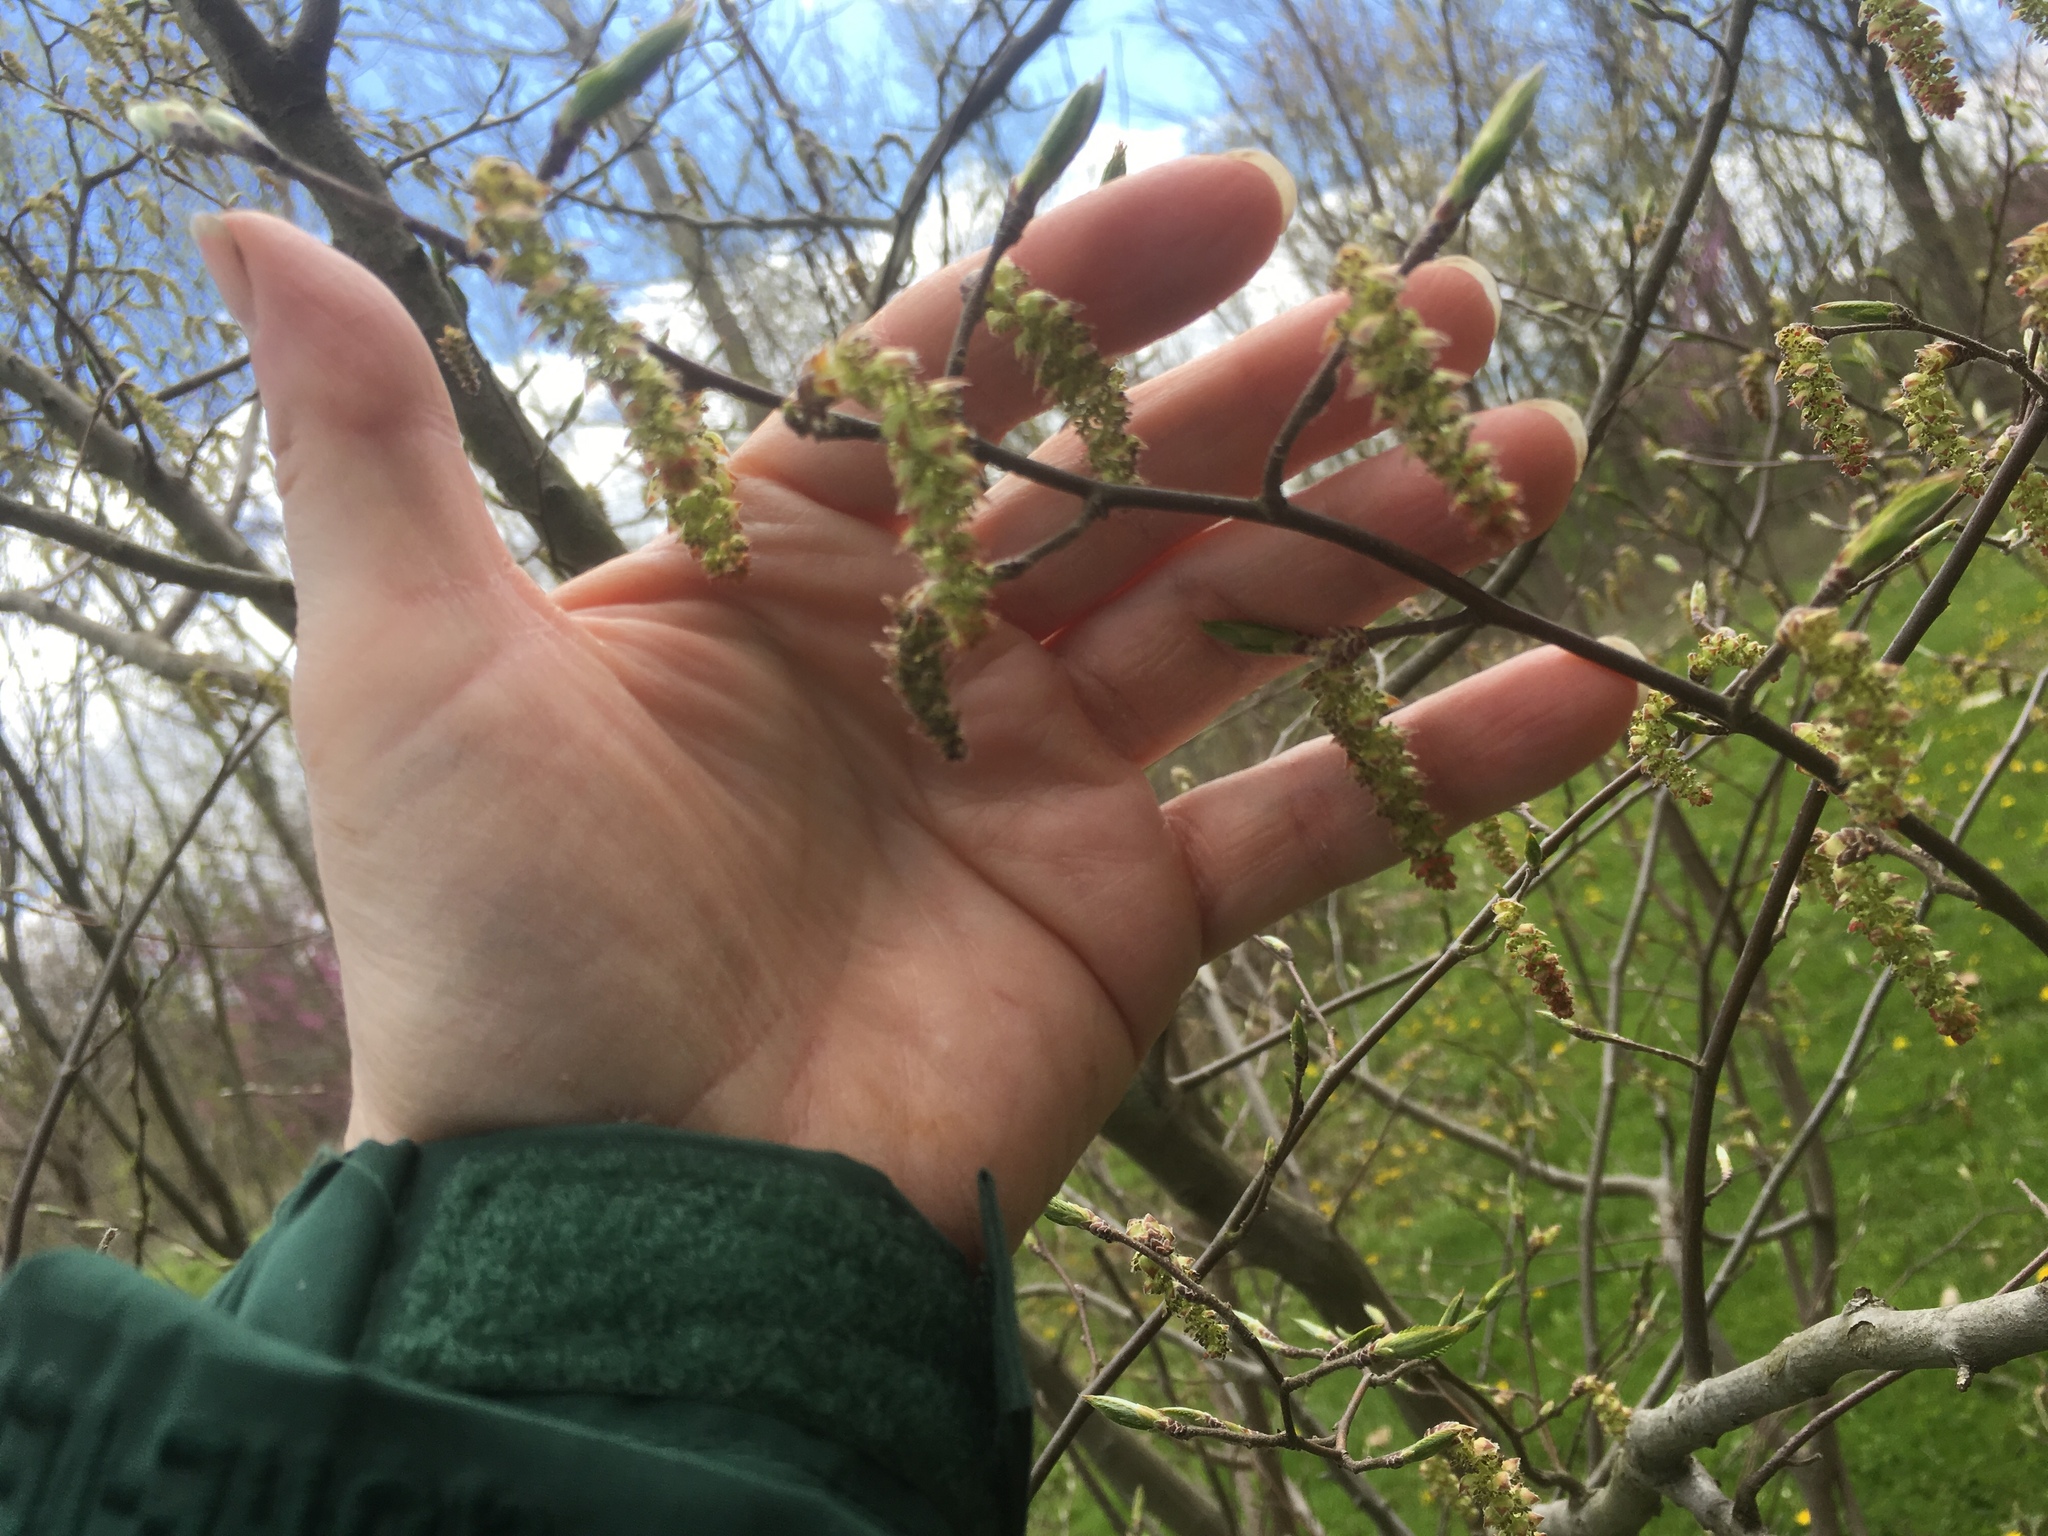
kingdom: Plantae
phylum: Tracheophyta
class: Magnoliopsida
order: Fagales
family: Betulaceae
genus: Carpinus
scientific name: Carpinus caroliniana
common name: American hornbeam
